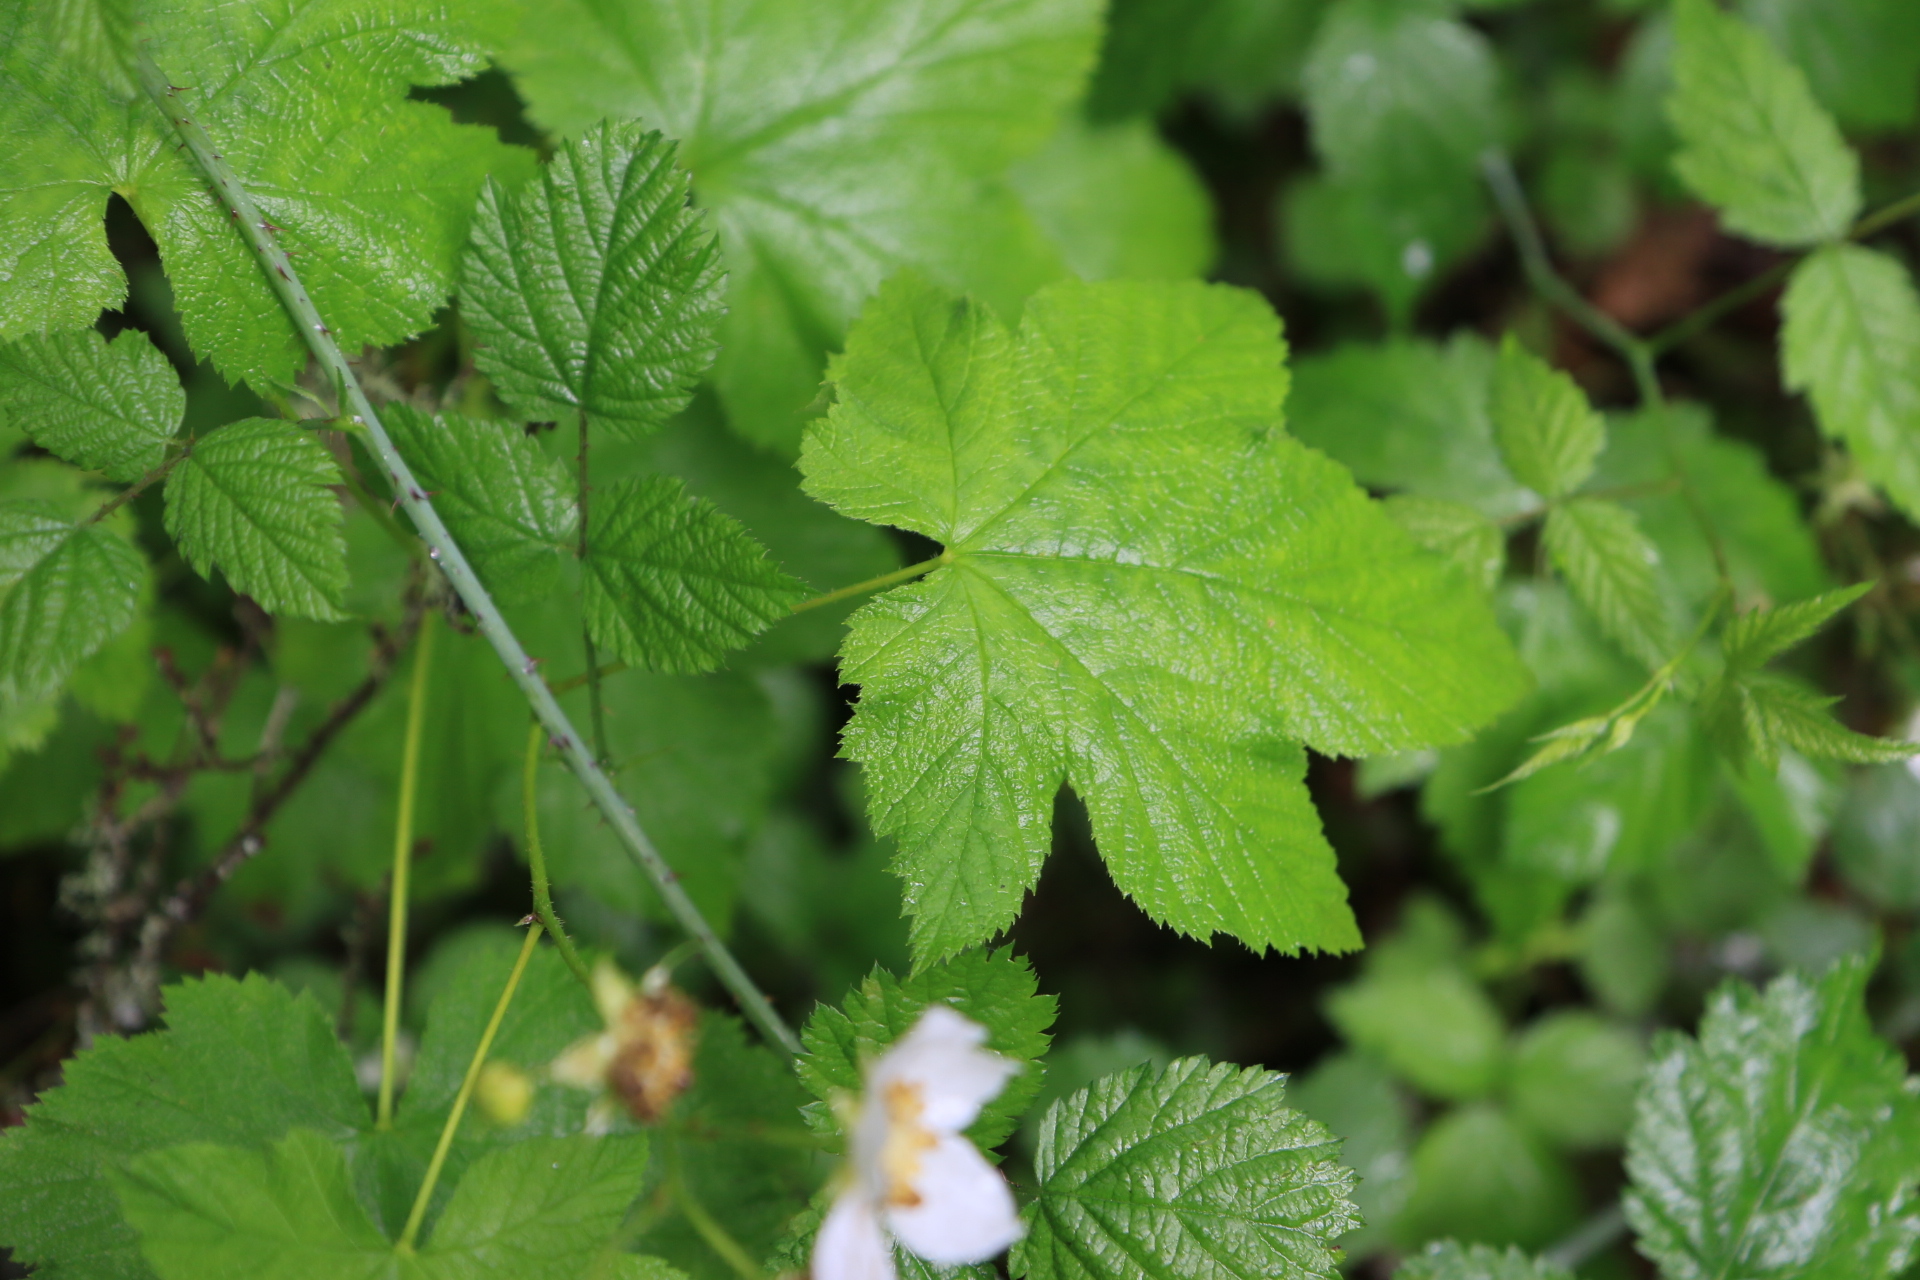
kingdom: Plantae
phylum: Tracheophyta
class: Magnoliopsida
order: Rosales
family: Rosaceae
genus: Rubus
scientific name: Rubus parviflorus
